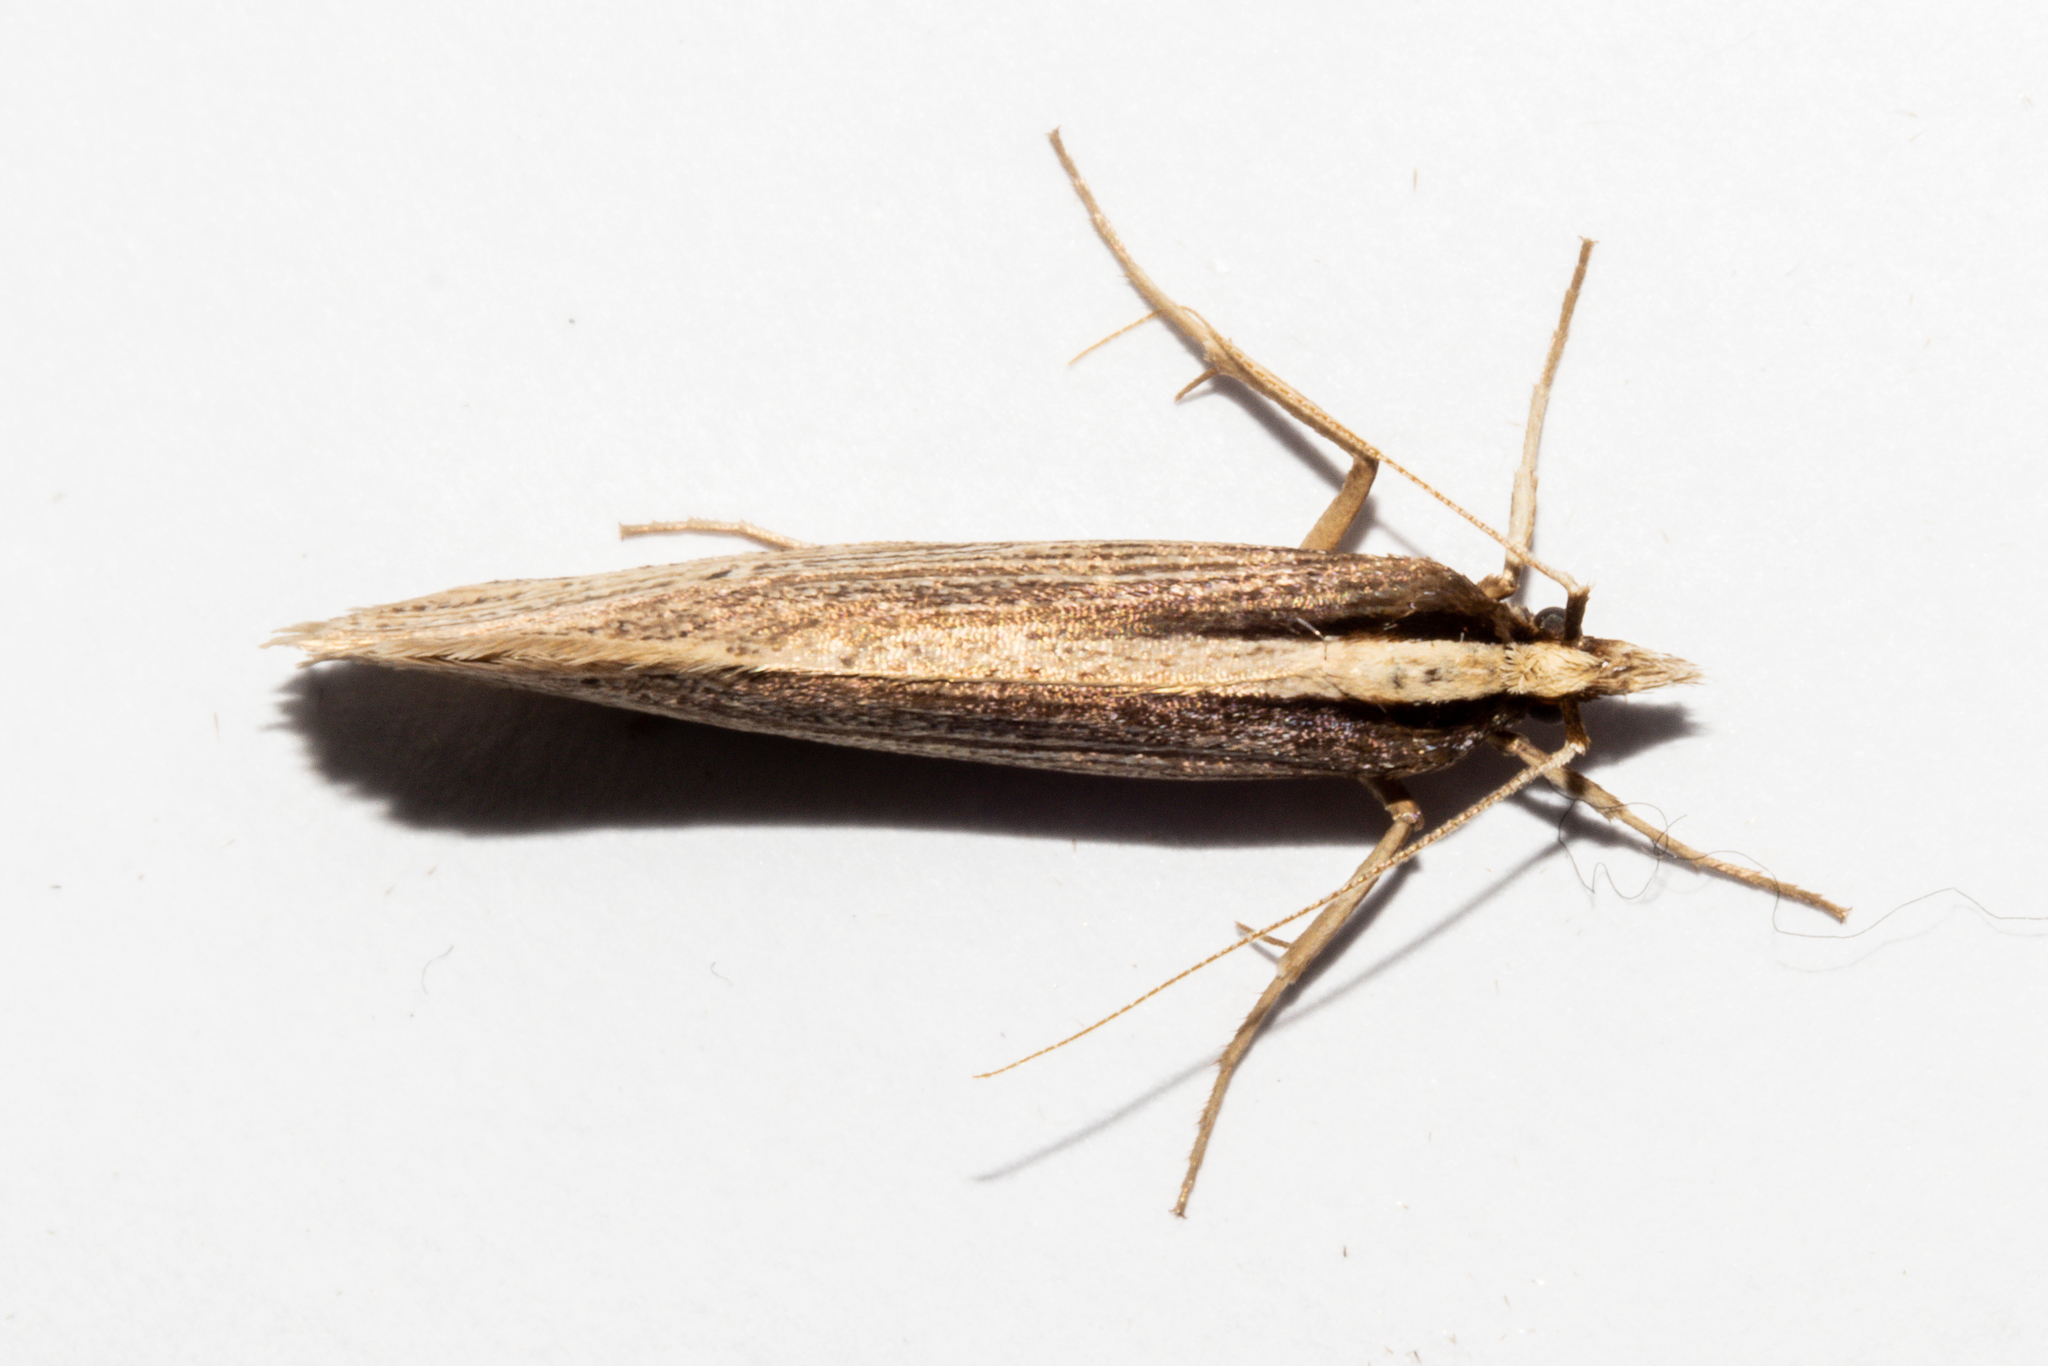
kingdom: Animalia
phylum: Arthropoda
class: Insecta
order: Lepidoptera
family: Plutellidae
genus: Proditrix
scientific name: Proditrix megalynta
